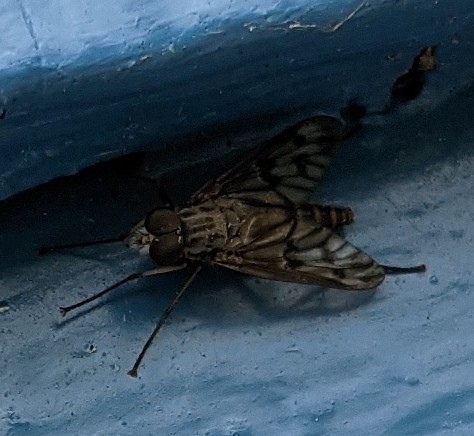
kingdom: Animalia
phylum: Arthropoda
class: Insecta
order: Diptera
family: Rhagionidae
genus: Rhagio
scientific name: Rhagio mystaceus
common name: Common snipe fly
